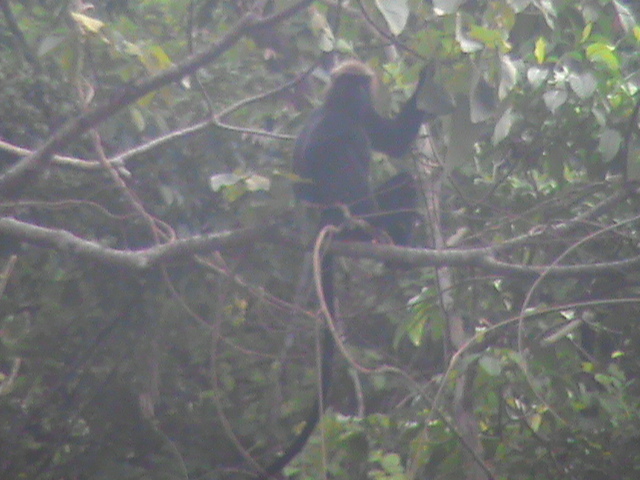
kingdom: Animalia
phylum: Chordata
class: Mammalia
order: Primates
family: Cercopithecidae
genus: Semnopithecus
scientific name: Semnopithecus johnii
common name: Nilgiri langur
